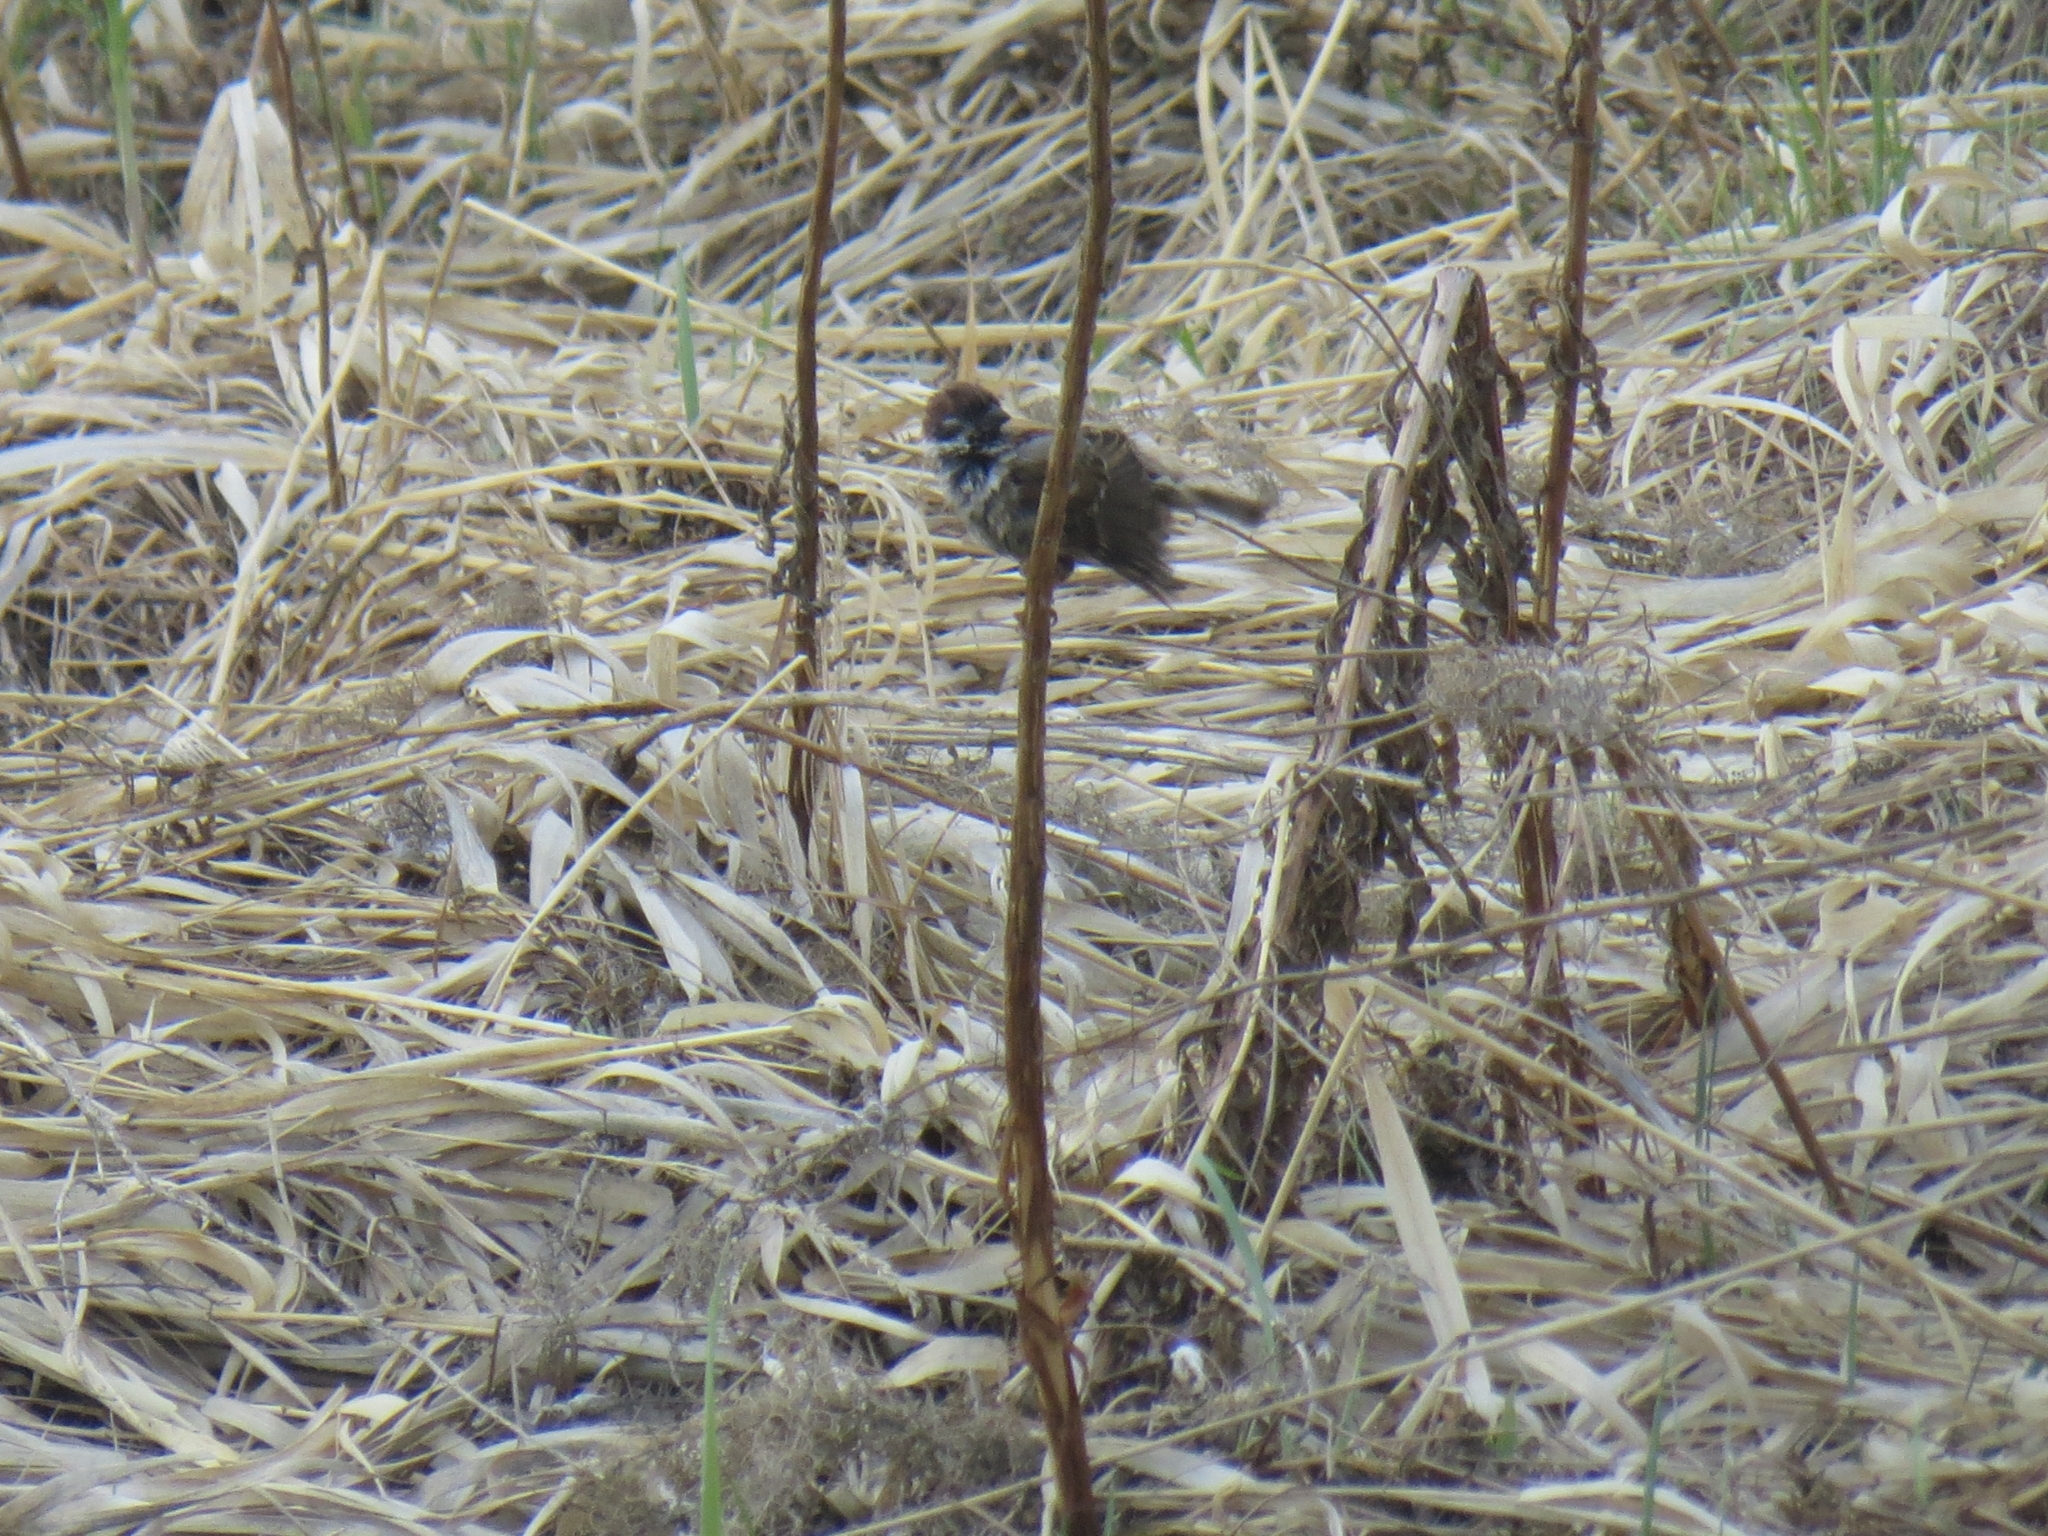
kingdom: Animalia
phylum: Chordata
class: Aves
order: Passeriformes
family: Passeridae
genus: Passer
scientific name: Passer montanus
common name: Eurasian tree sparrow
